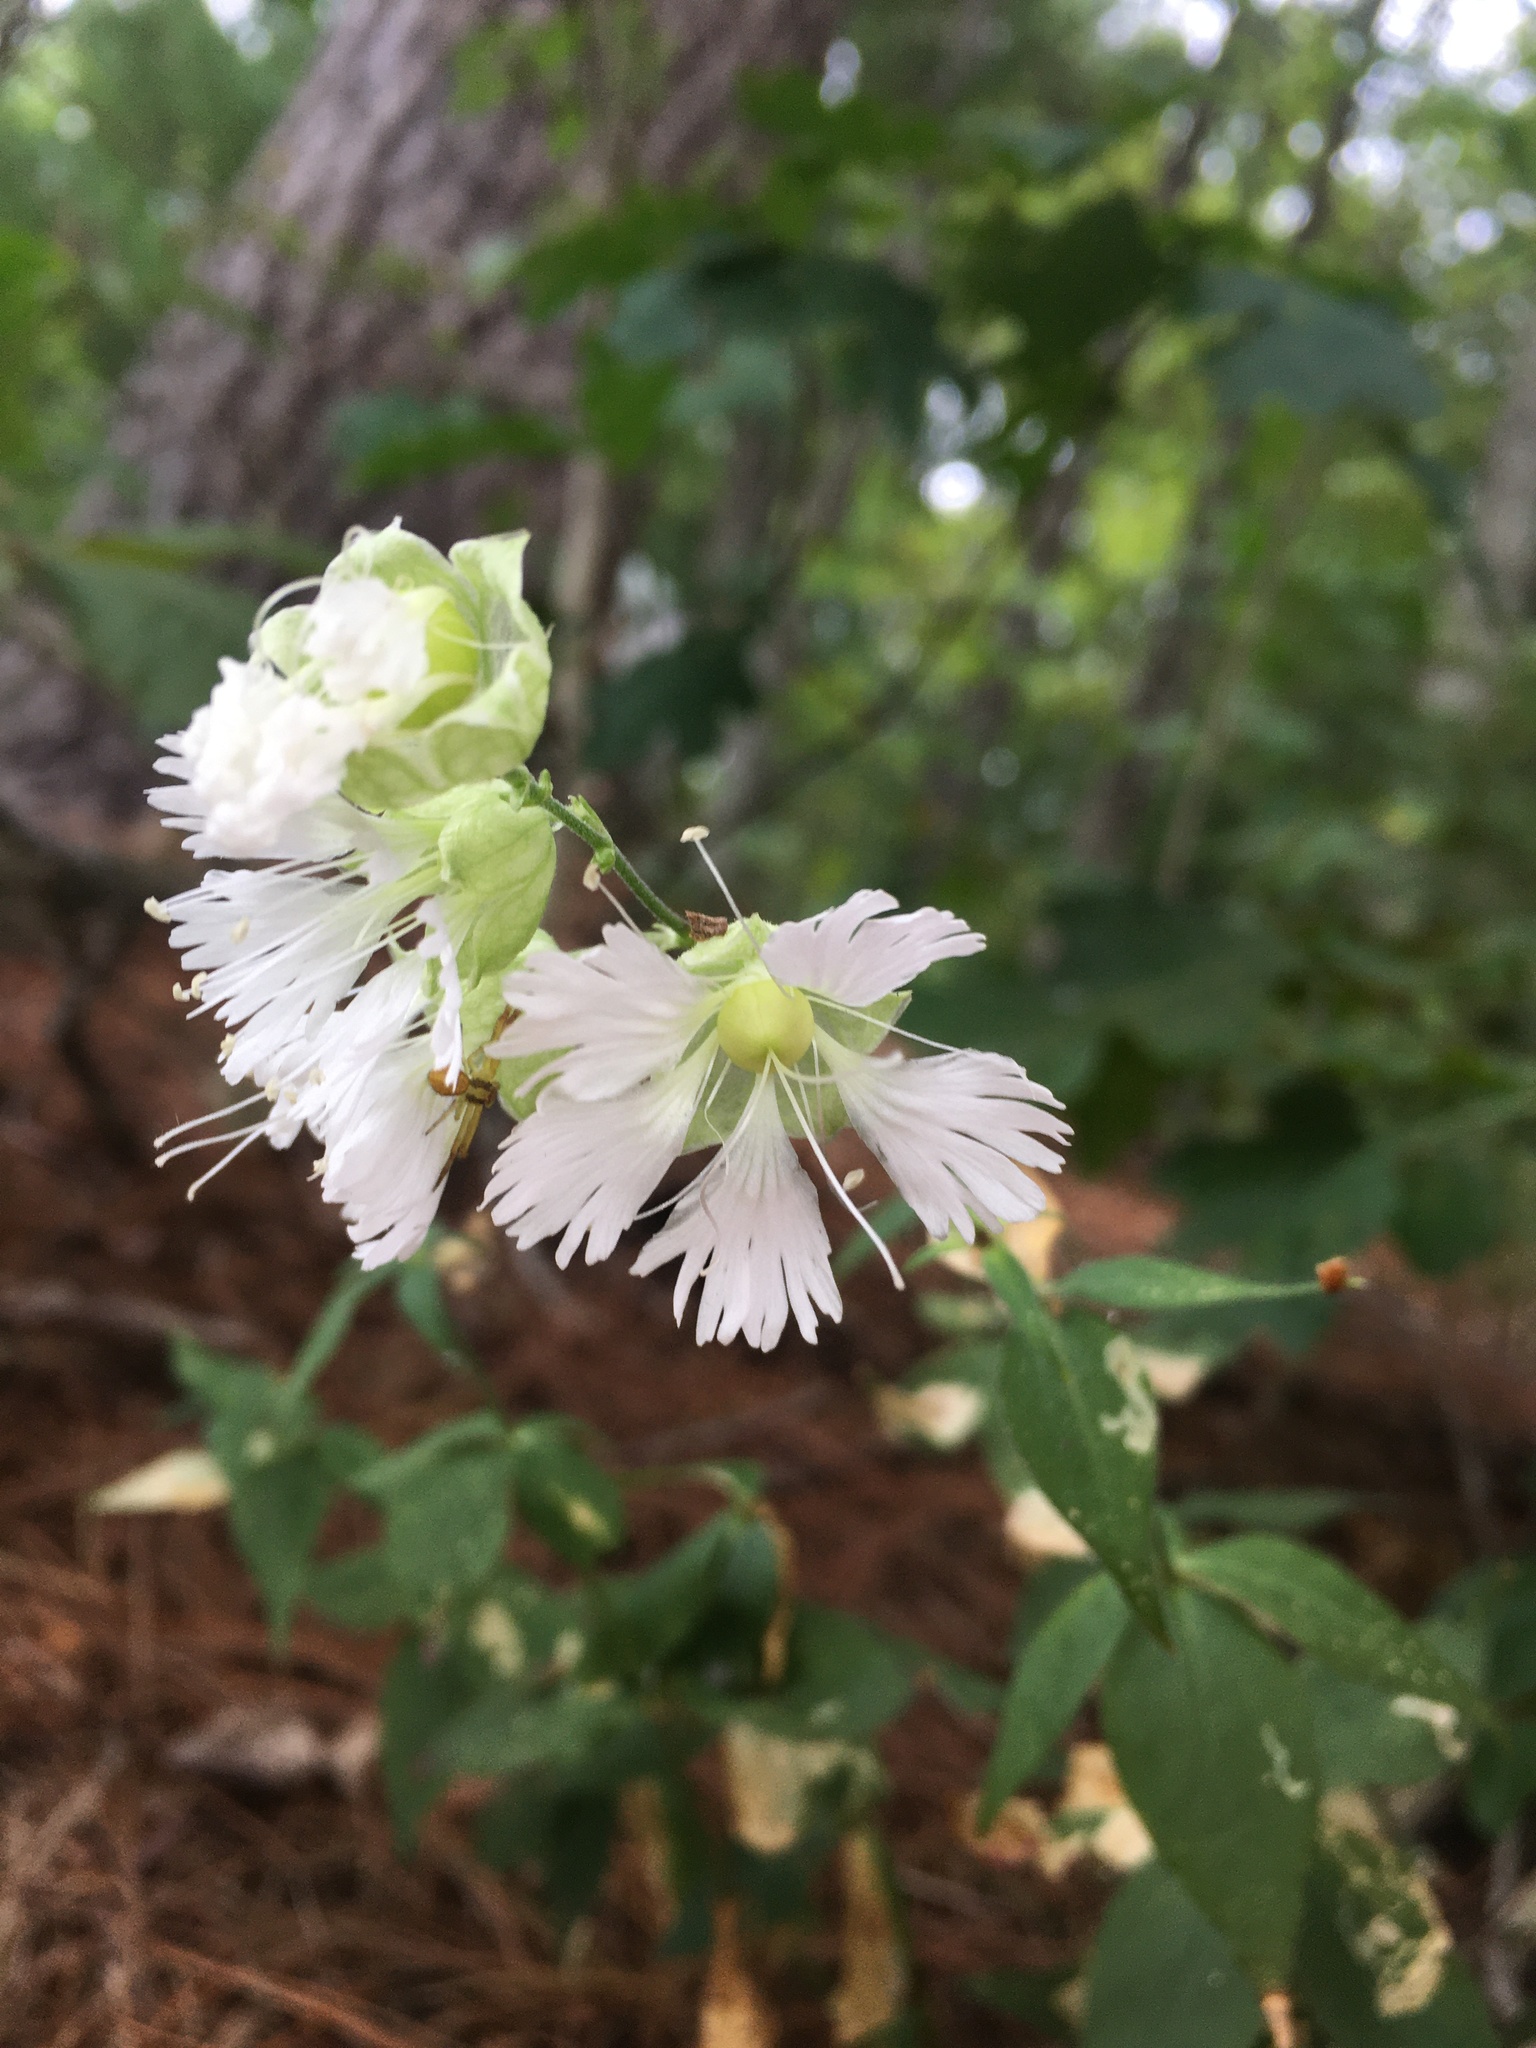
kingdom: Plantae
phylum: Tracheophyta
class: Magnoliopsida
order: Caryophyllales
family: Caryophyllaceae
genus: Silene
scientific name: Silene stellata
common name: Starry campion
